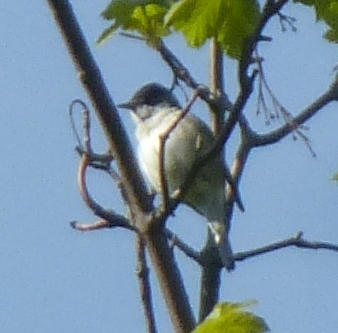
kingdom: Animalia
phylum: Chordata
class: Aves
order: Passeriformes
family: Sylviidae
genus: Sylvia
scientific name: Sylvia atricapilla
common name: Eurasian blackcap
